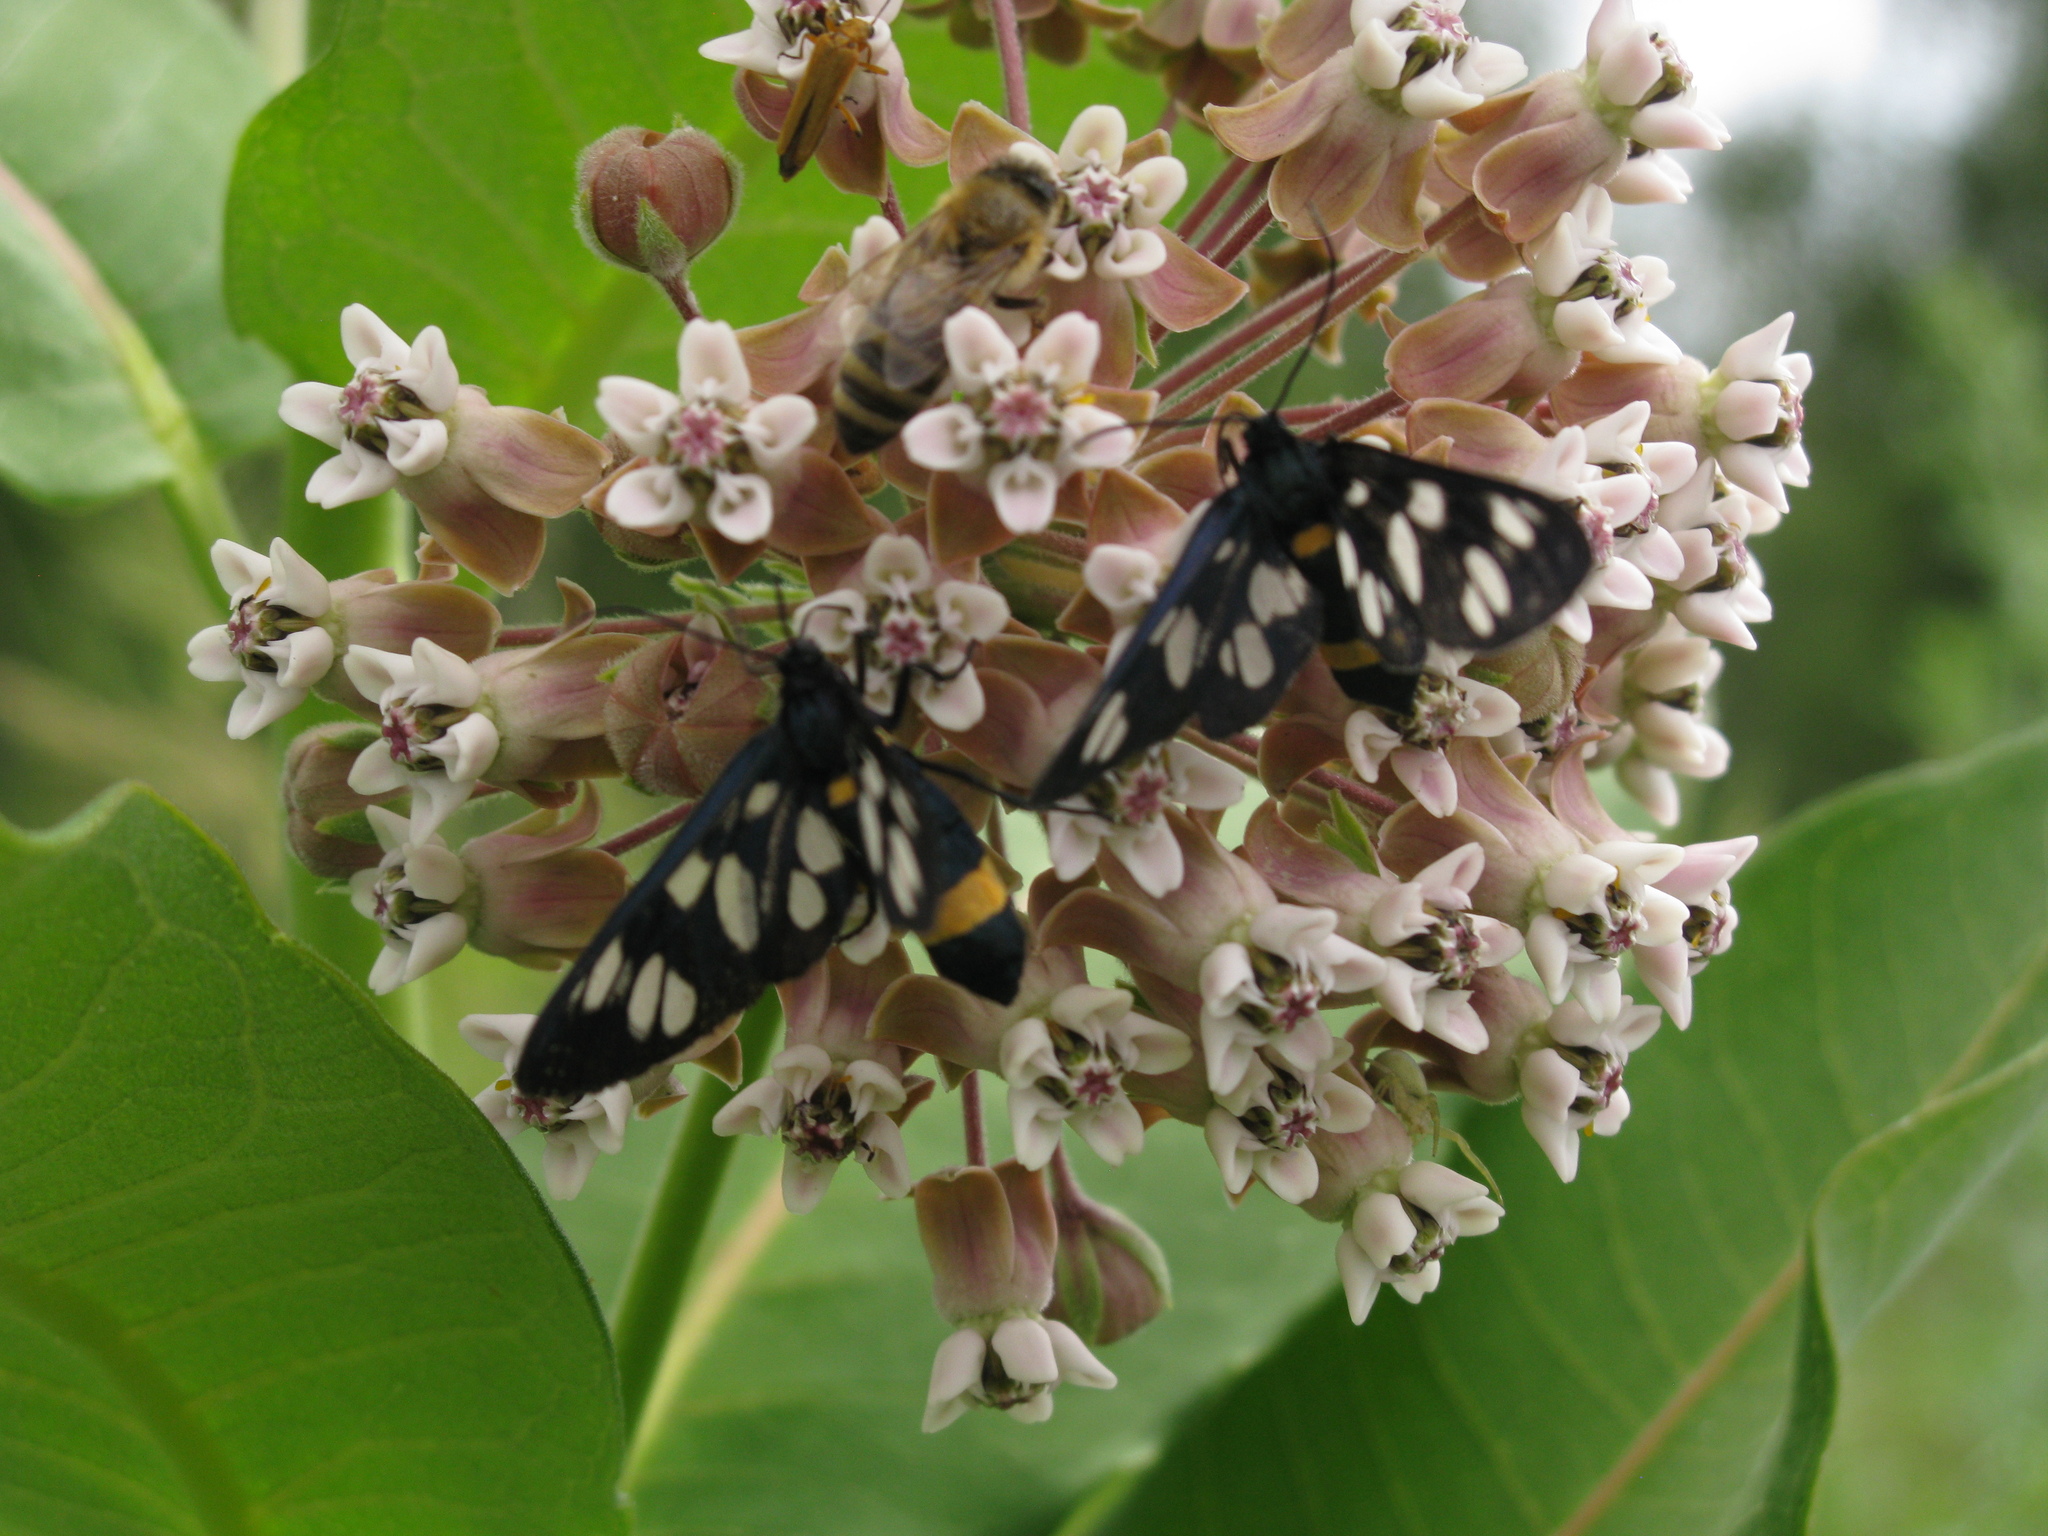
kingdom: Animalia
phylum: Arthropoda
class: Insecta
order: Hymenoptera
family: Apidae
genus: Apis
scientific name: Apis mellifera
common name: Honey bee
